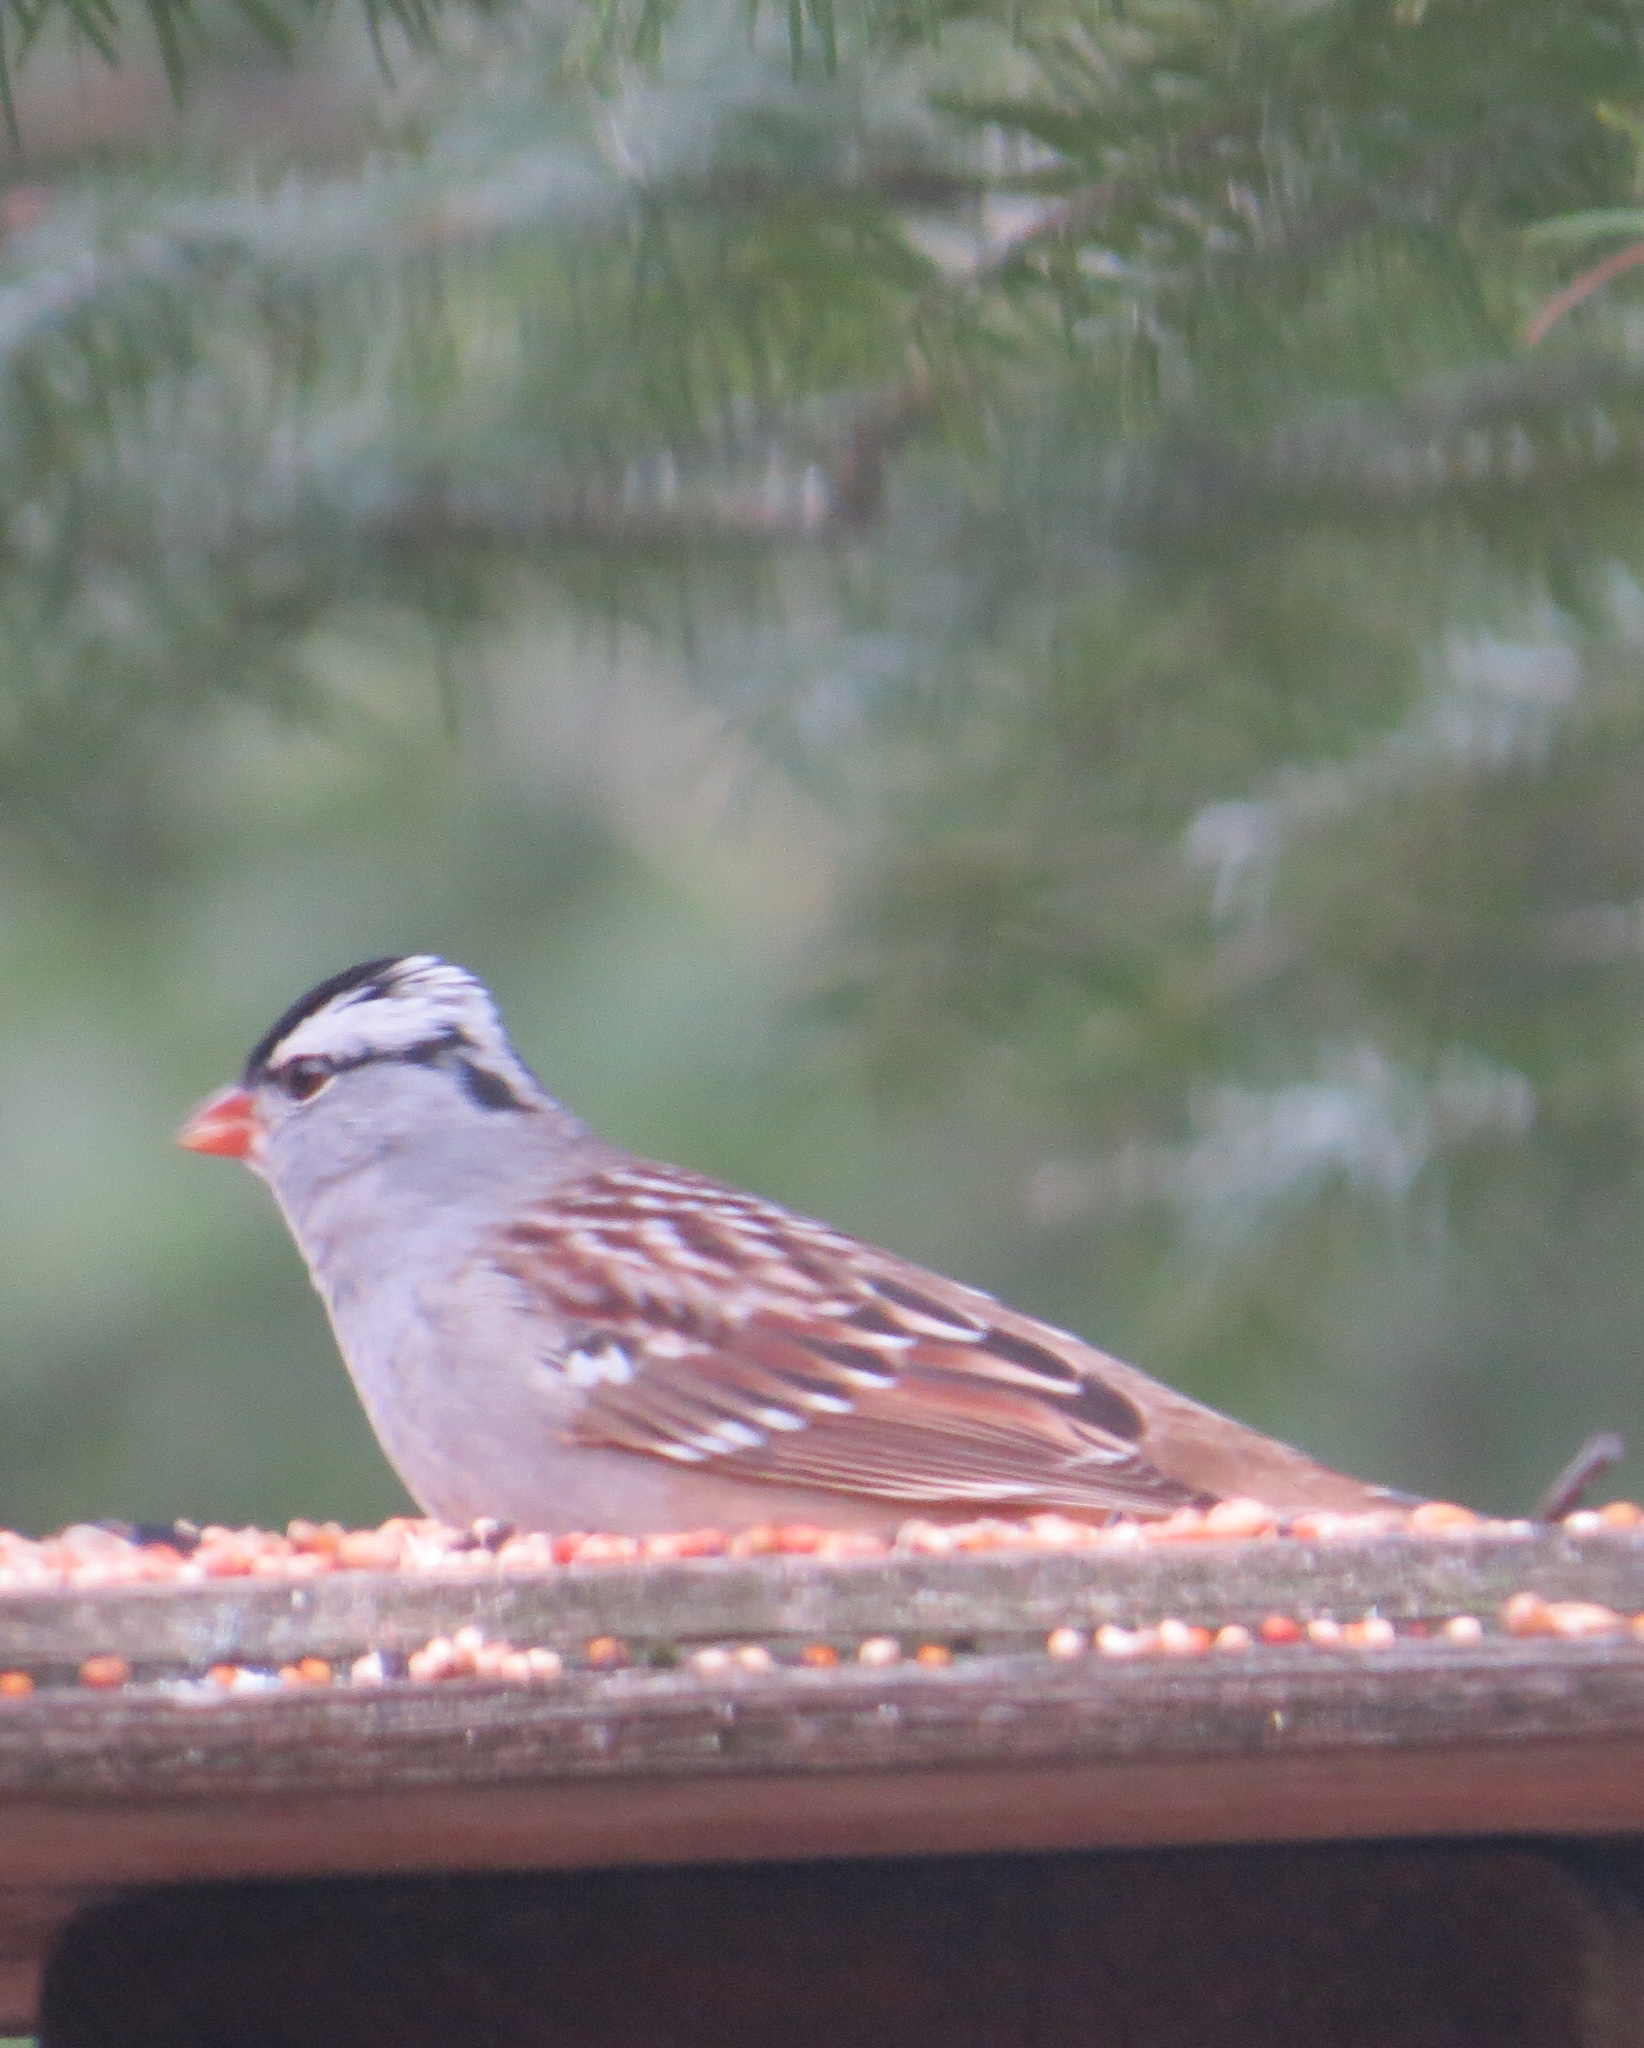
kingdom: Animalia
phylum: Chordata
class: Aves
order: Passeriformes
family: Passerellidae
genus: Zonotrichia
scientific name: Zonotrichia leucophrys
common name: White-crowned sparrow
